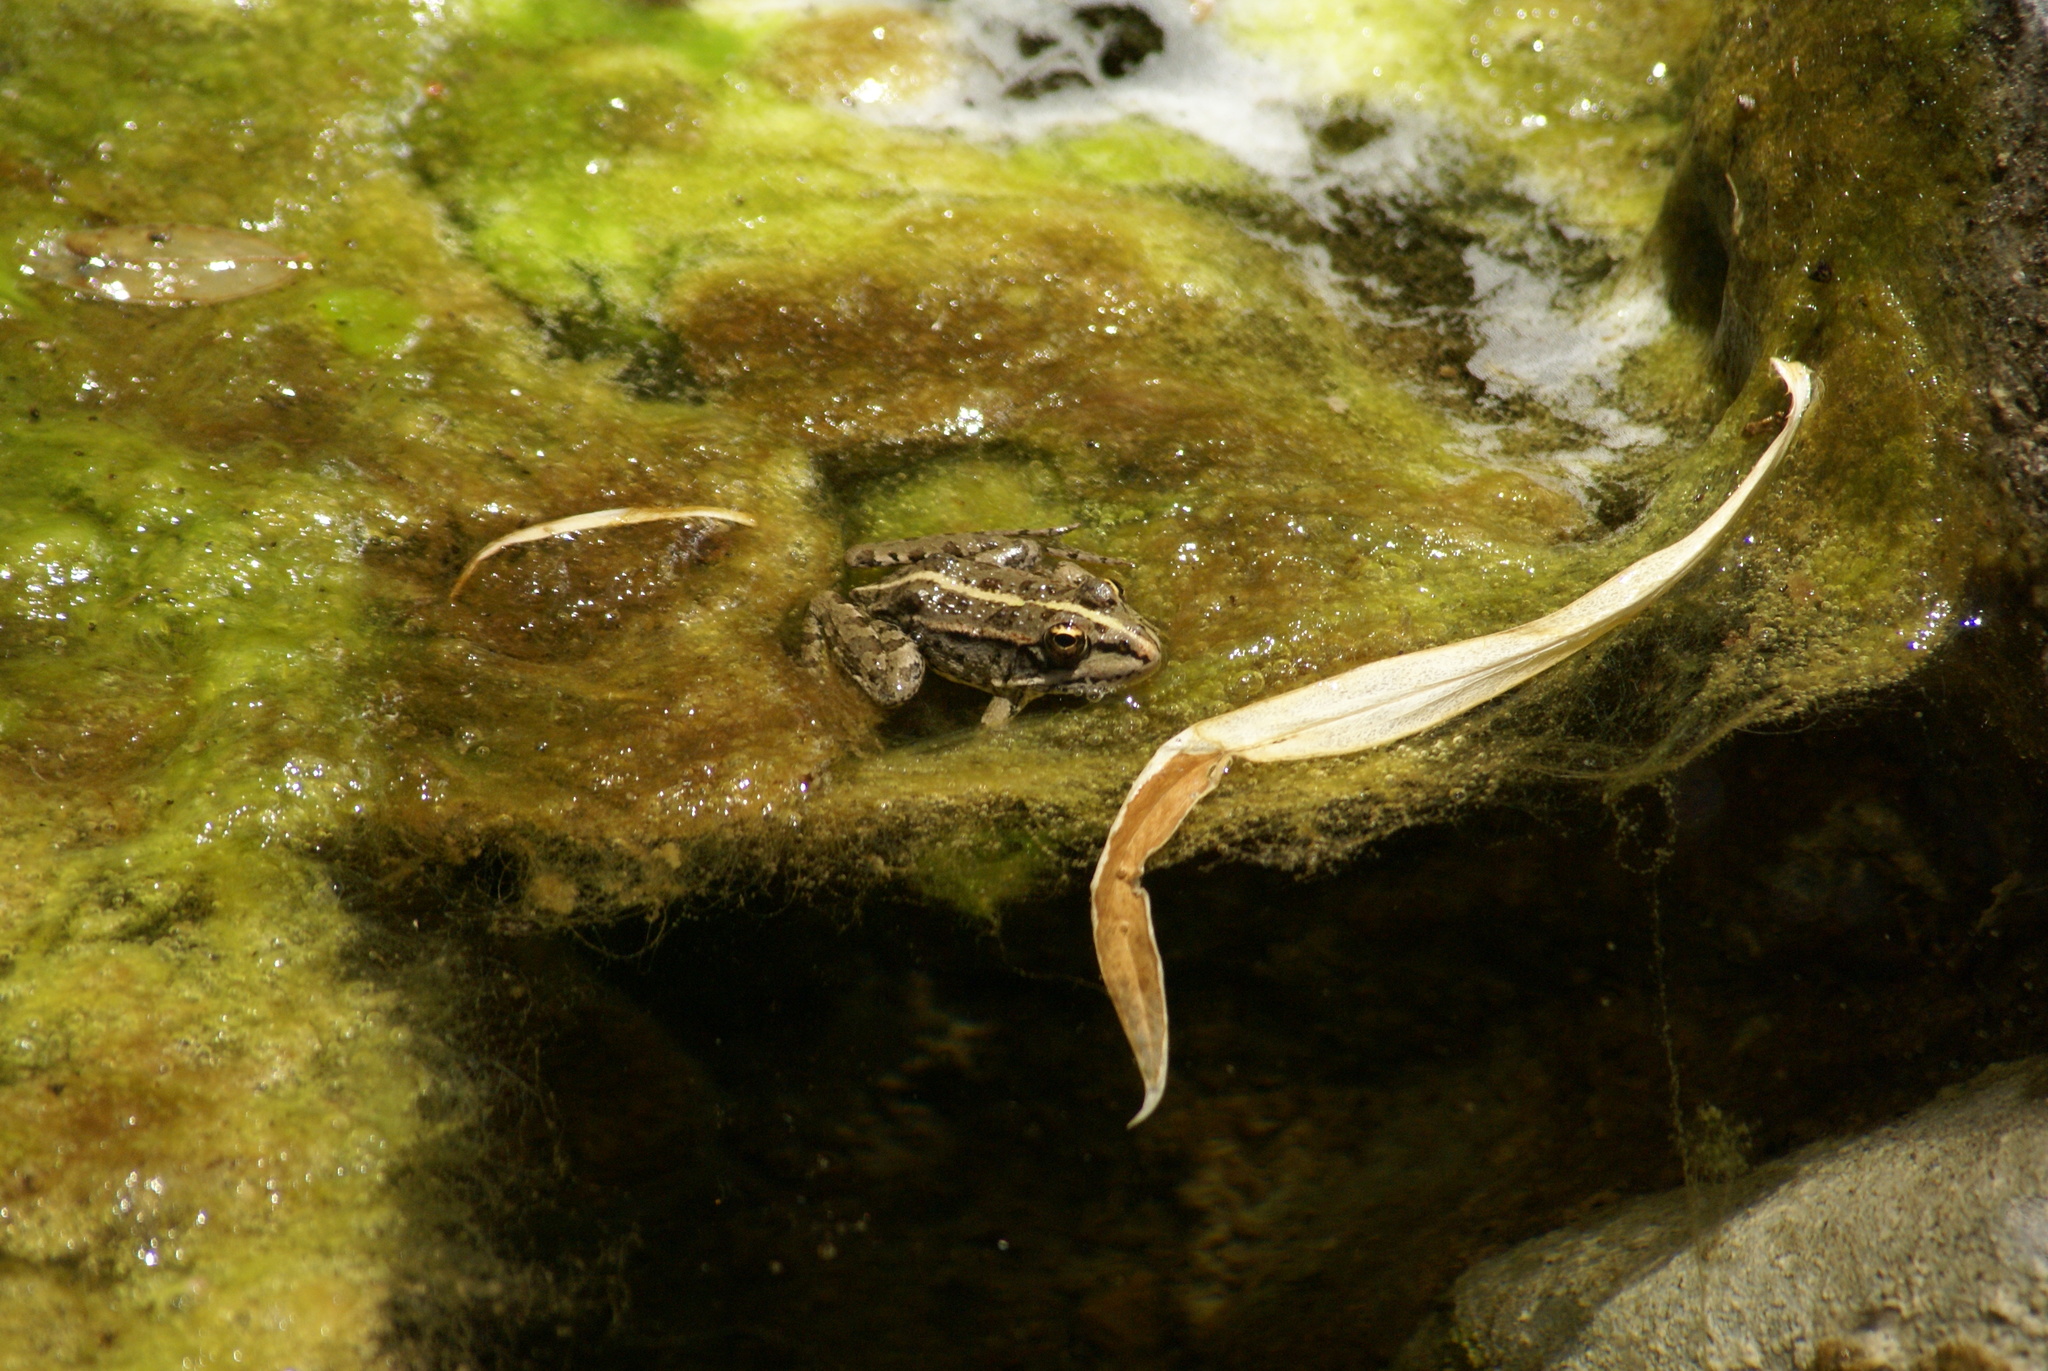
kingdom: Animalia
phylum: Chordata
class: Amphibia
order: Anura
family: Ranidae
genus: Pelophylax
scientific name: Pelophylax perezi
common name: Perez's frog
